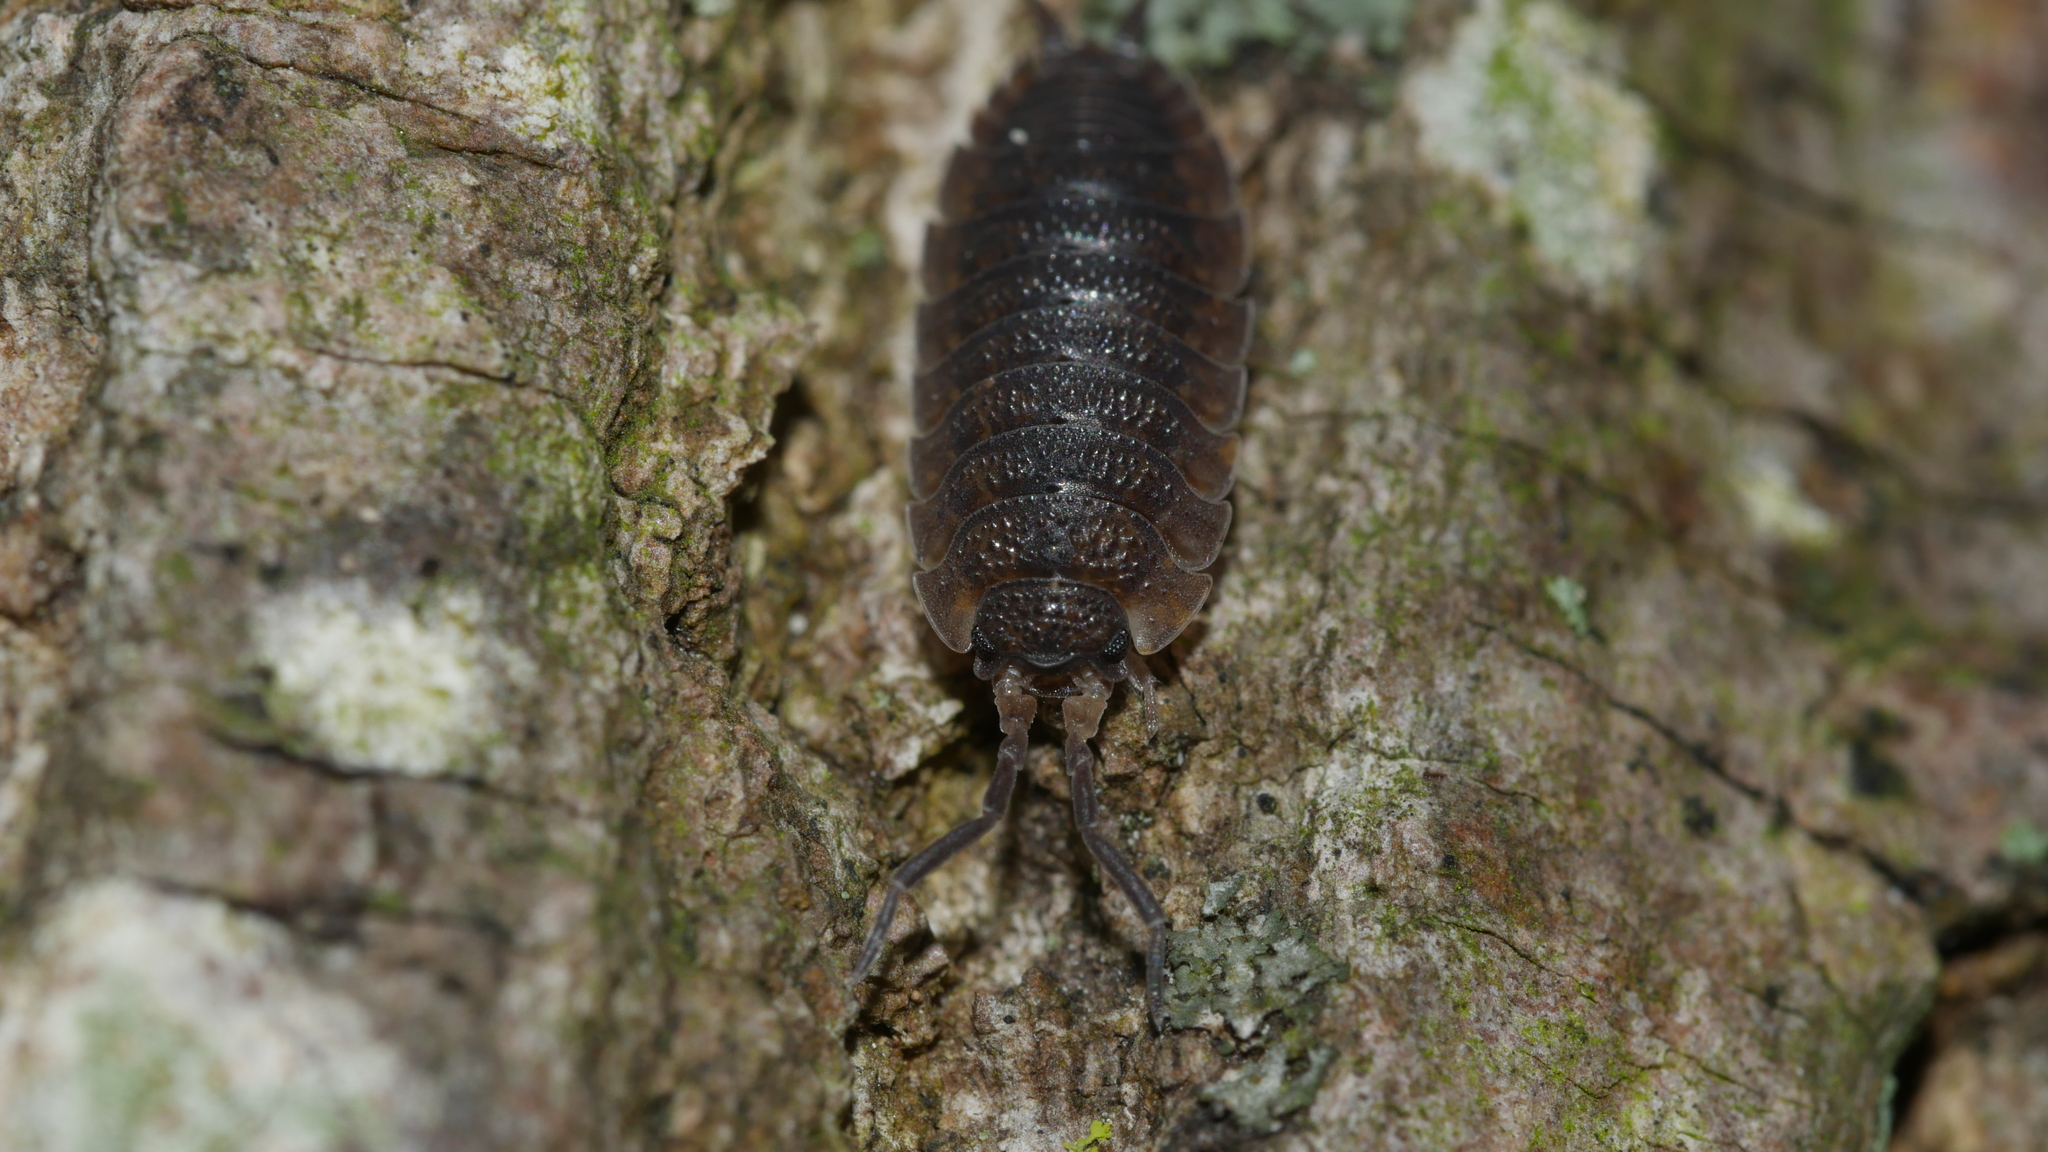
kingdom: Animalia
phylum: Arthropoda
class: Malacostraca
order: Isopoda
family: Porcellionidae
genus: Porcellio
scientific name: Porcellio scaber
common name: Common rough woodlouse
